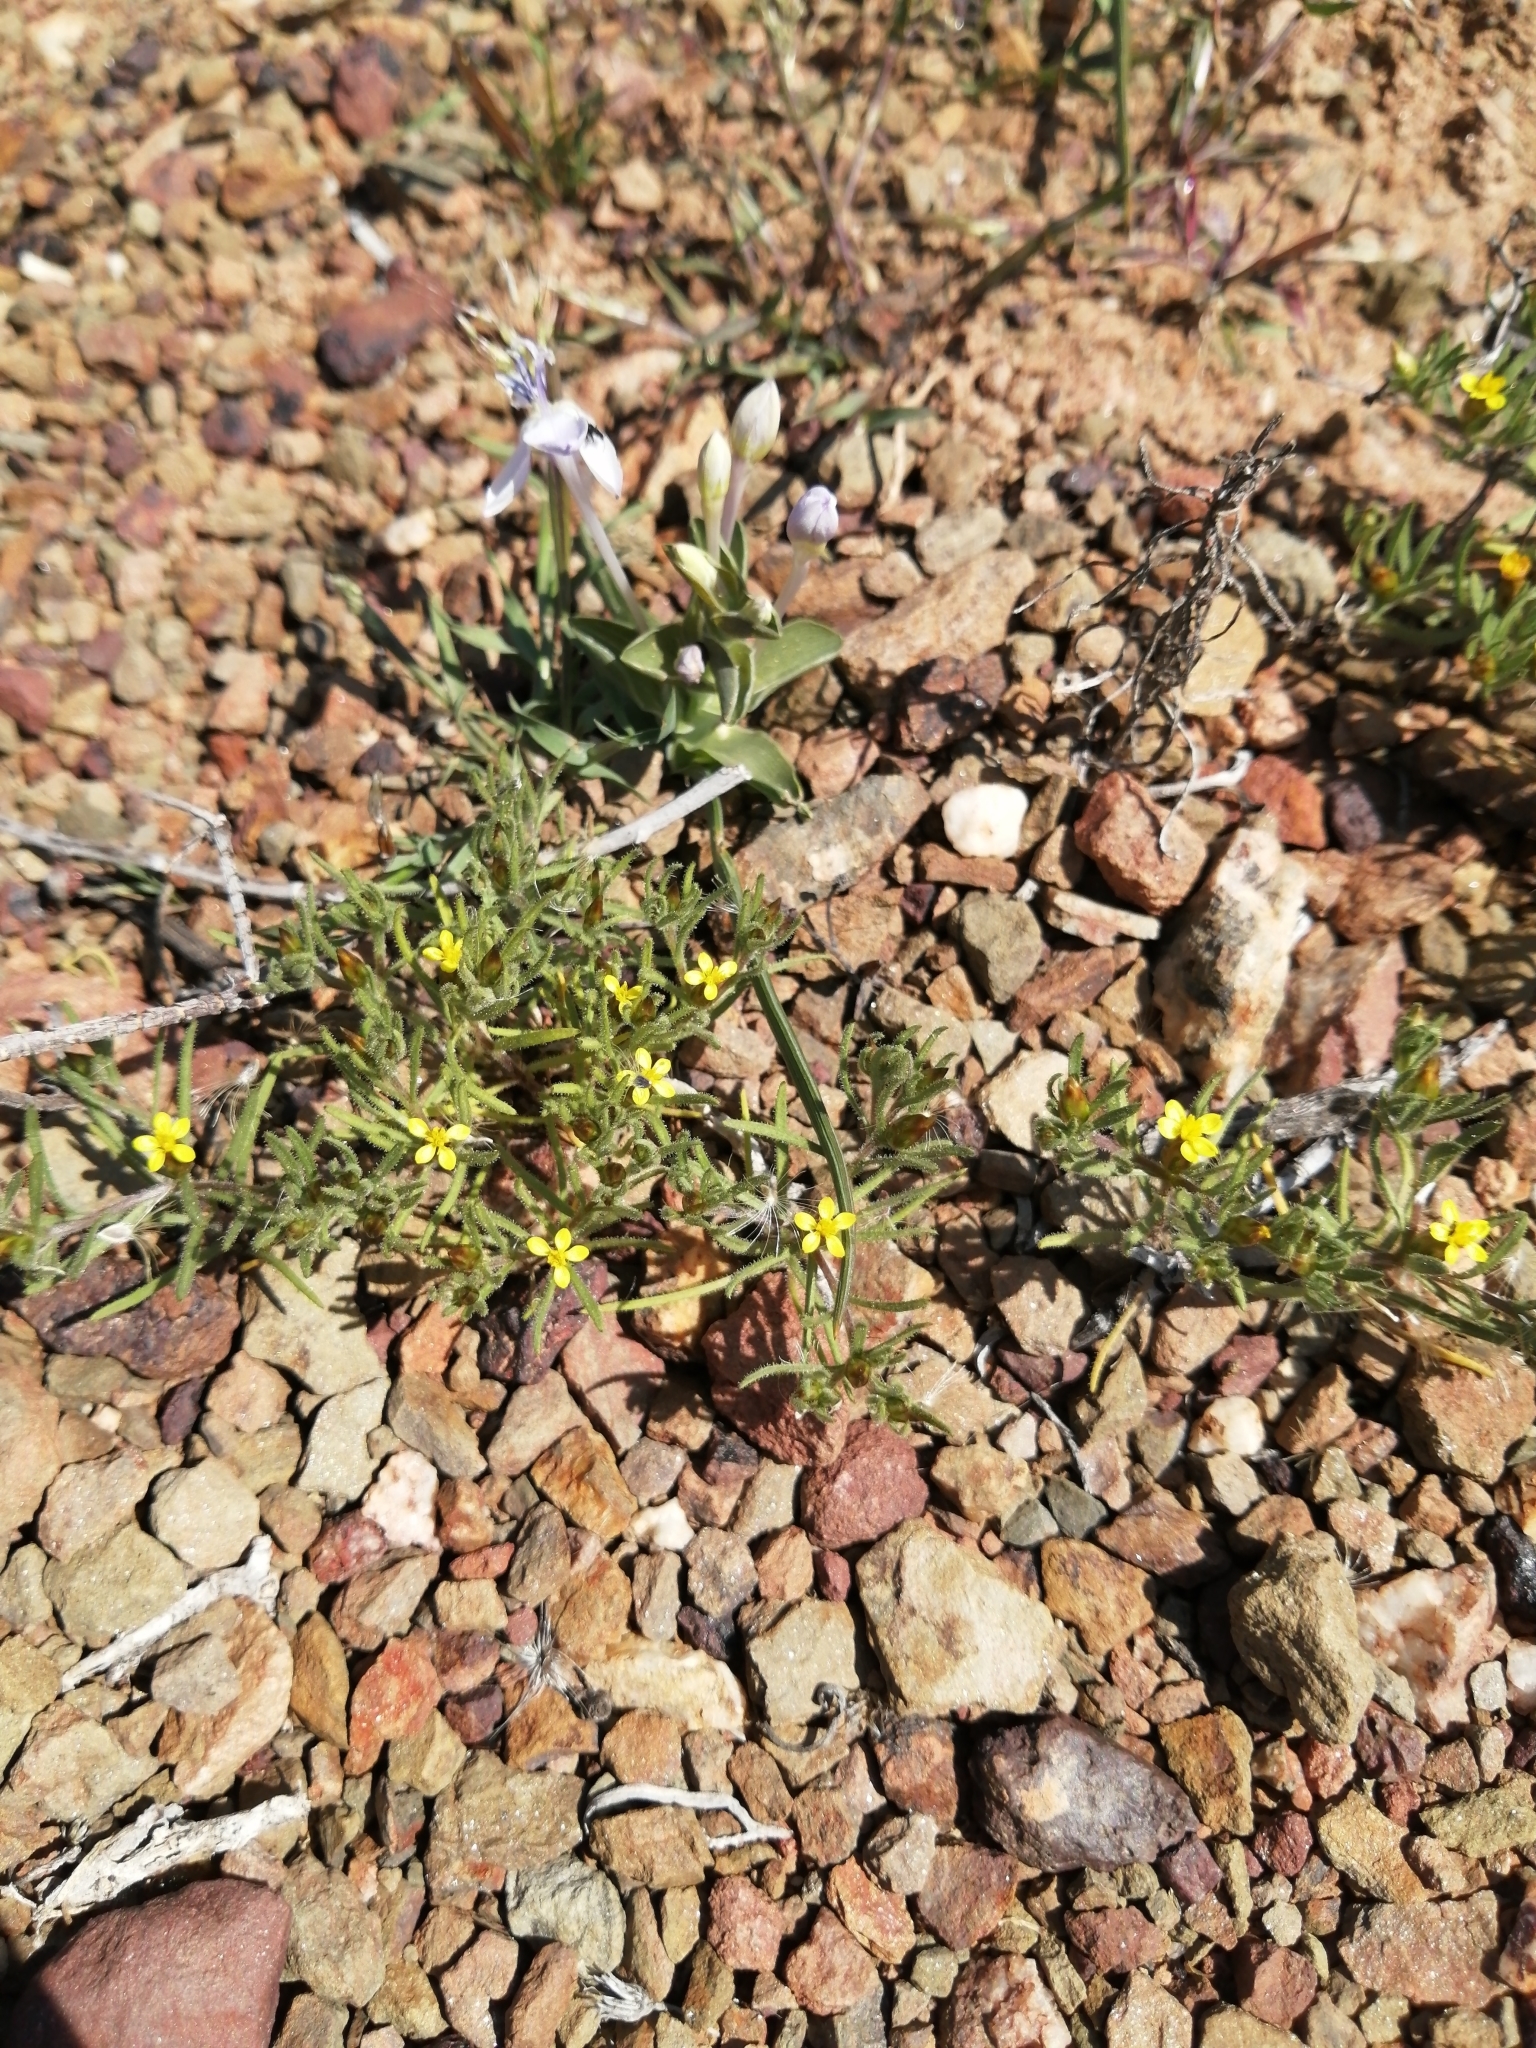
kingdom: Plantae
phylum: Tracheophyta
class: Magnoliopsida
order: Asterales
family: Asteraceae
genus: Rhynchopsidium
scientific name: Rhynchopsidium sessiliflorum
